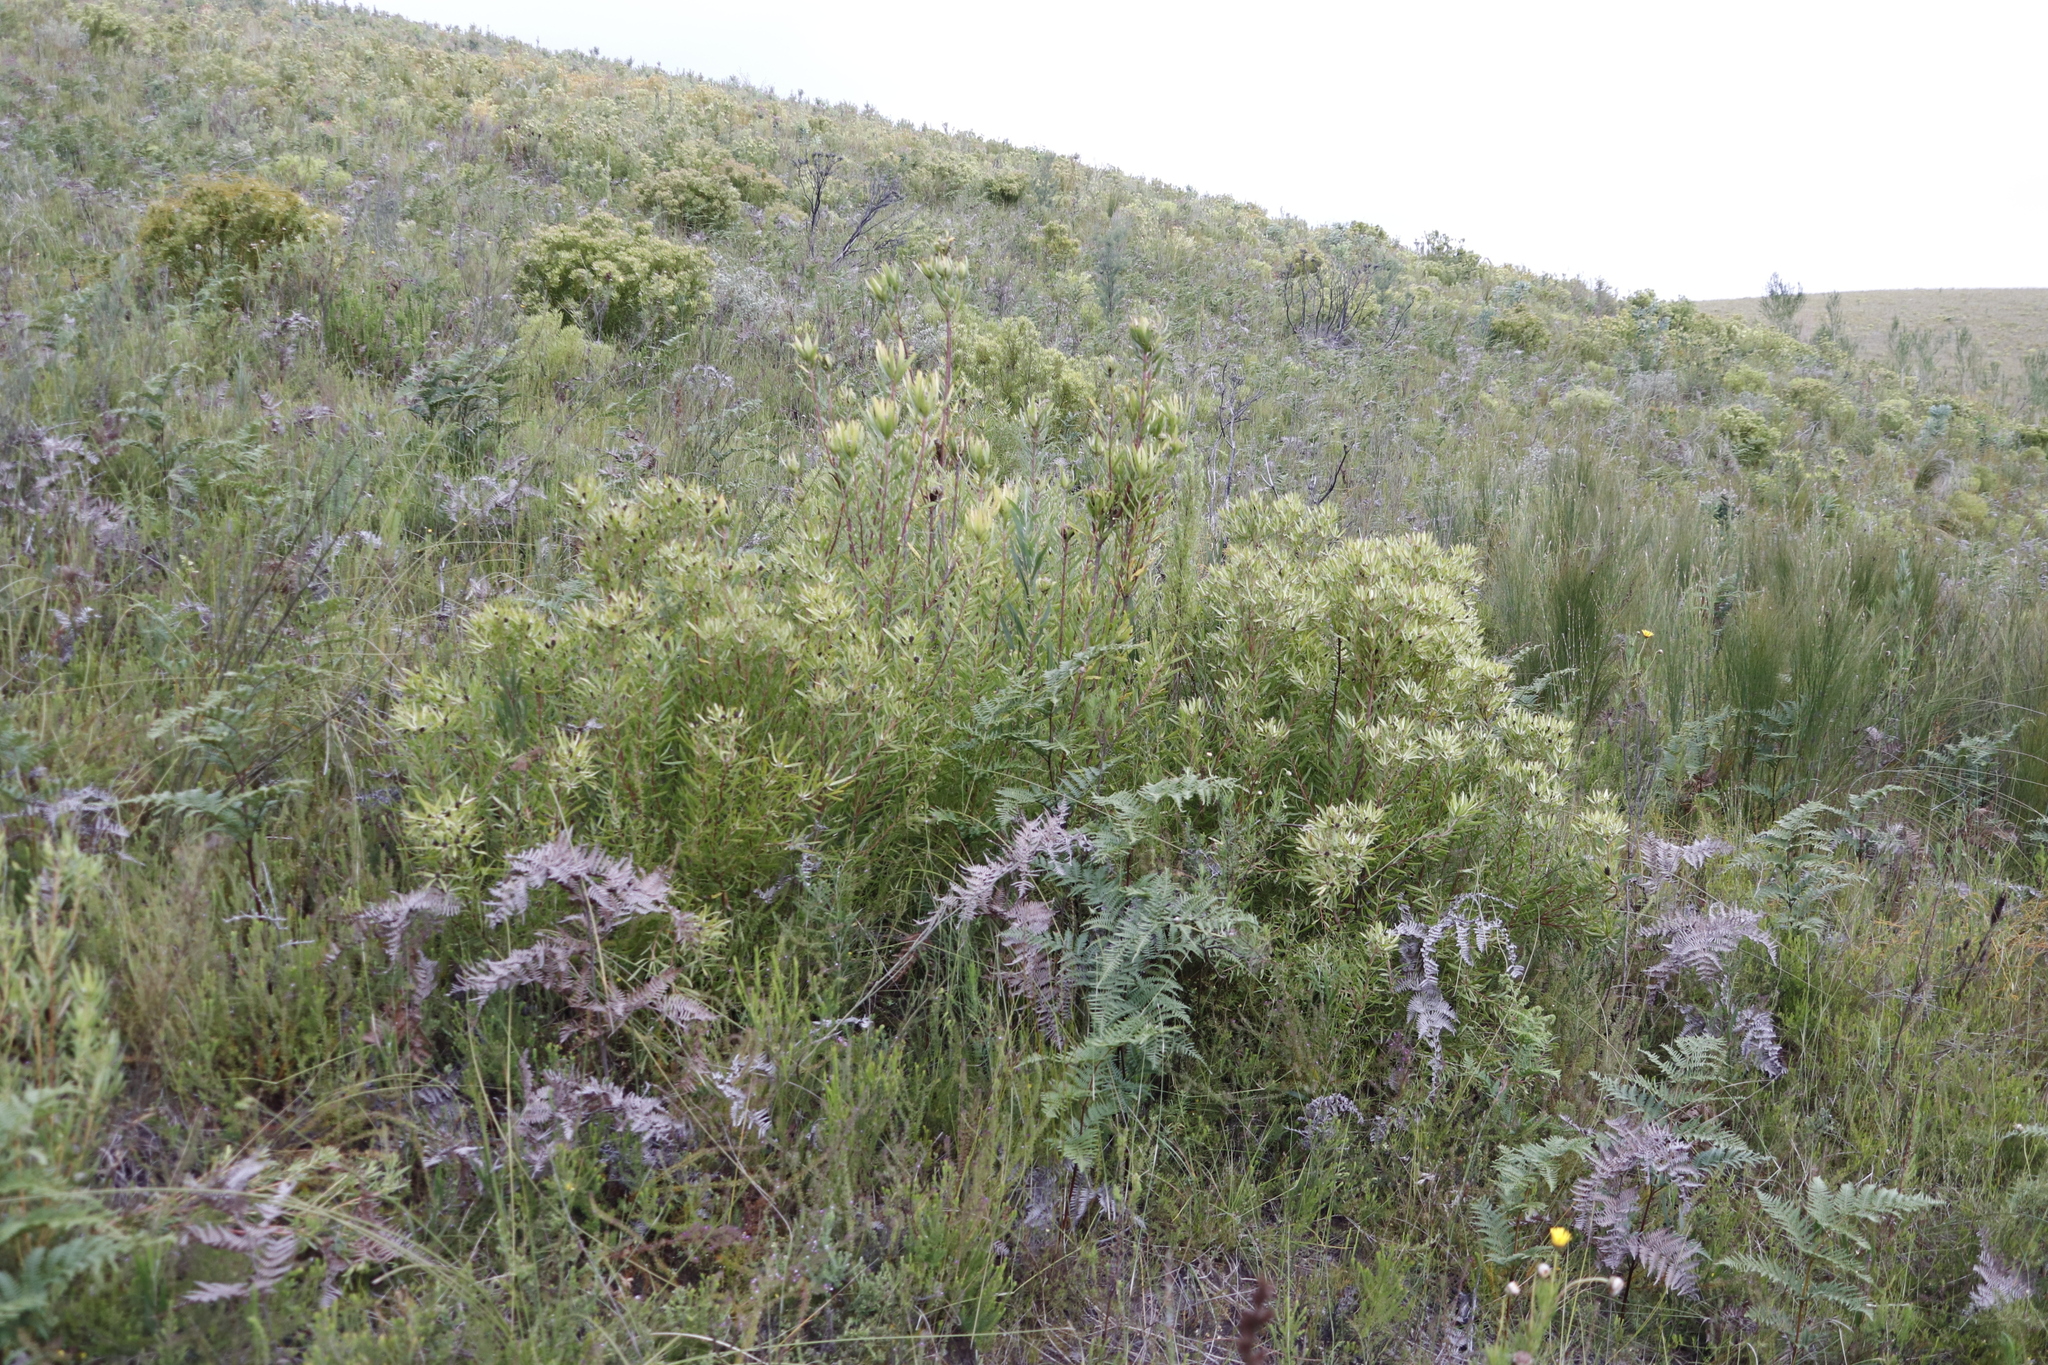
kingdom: Plantae
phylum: Tracheophyta
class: Magnoliopsida
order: Proteales
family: Proteaceae
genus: Leucadendron
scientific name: Leucadendron spissifolium
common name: Spear-leaf conebush
